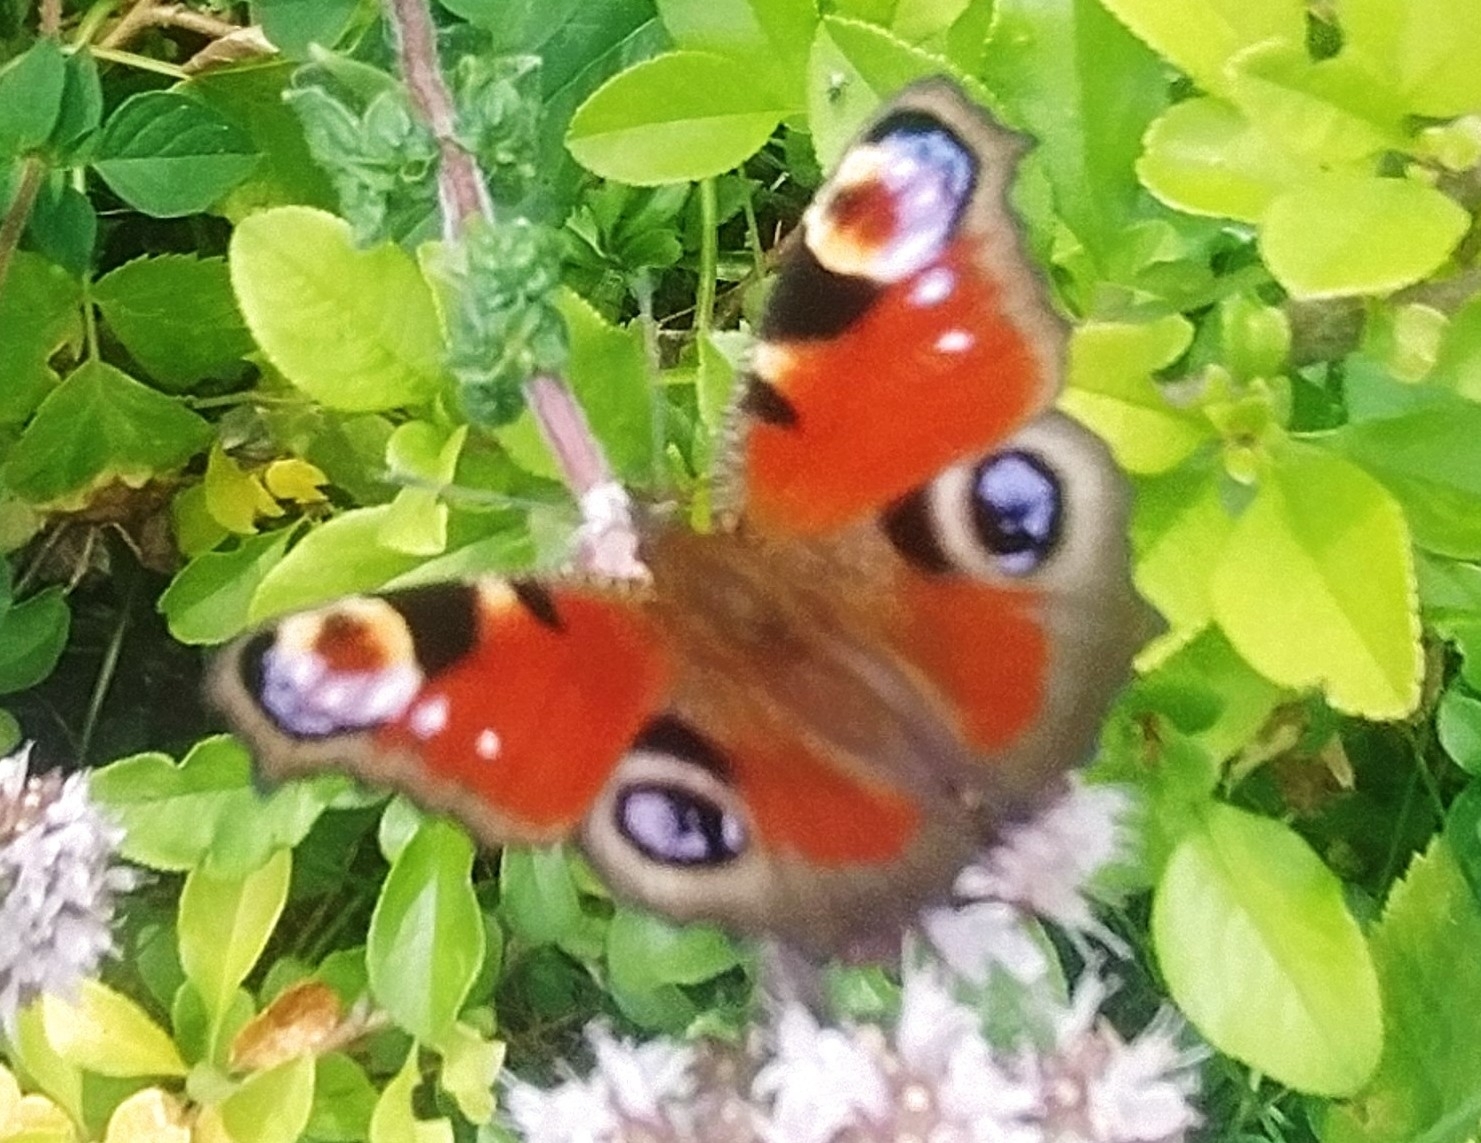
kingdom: Animalia
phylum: Arthropoda
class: Insecta
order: Lepidoptera
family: Nymphalidae
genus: Aglais
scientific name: Aglais io
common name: Peacock
